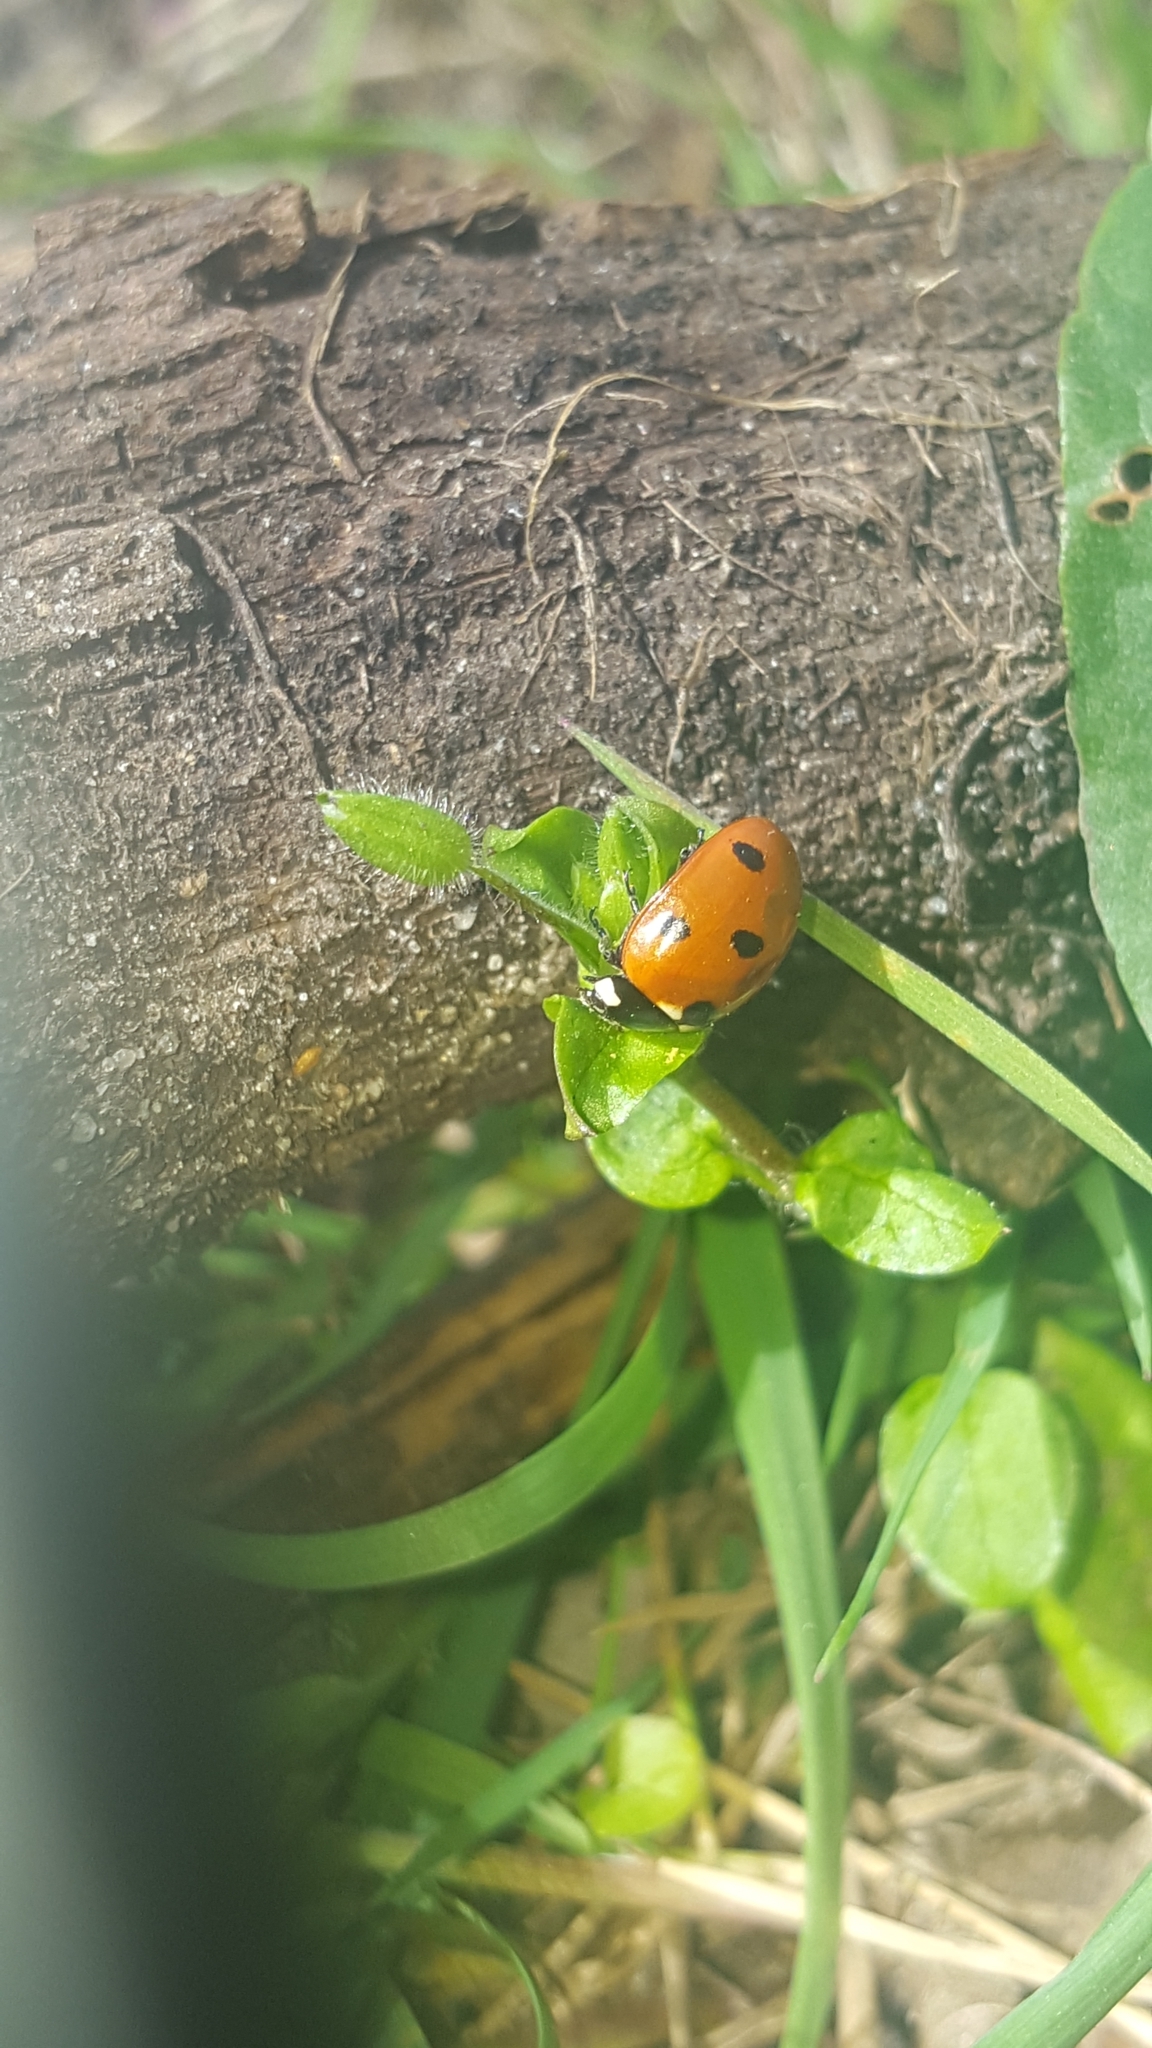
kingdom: Animalia
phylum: Arthropoda
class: Insecta
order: Coleoptera
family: Coccinellidae
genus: Coccinella
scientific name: Coccinella septempunctata
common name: Sevenspotted lady beetle
